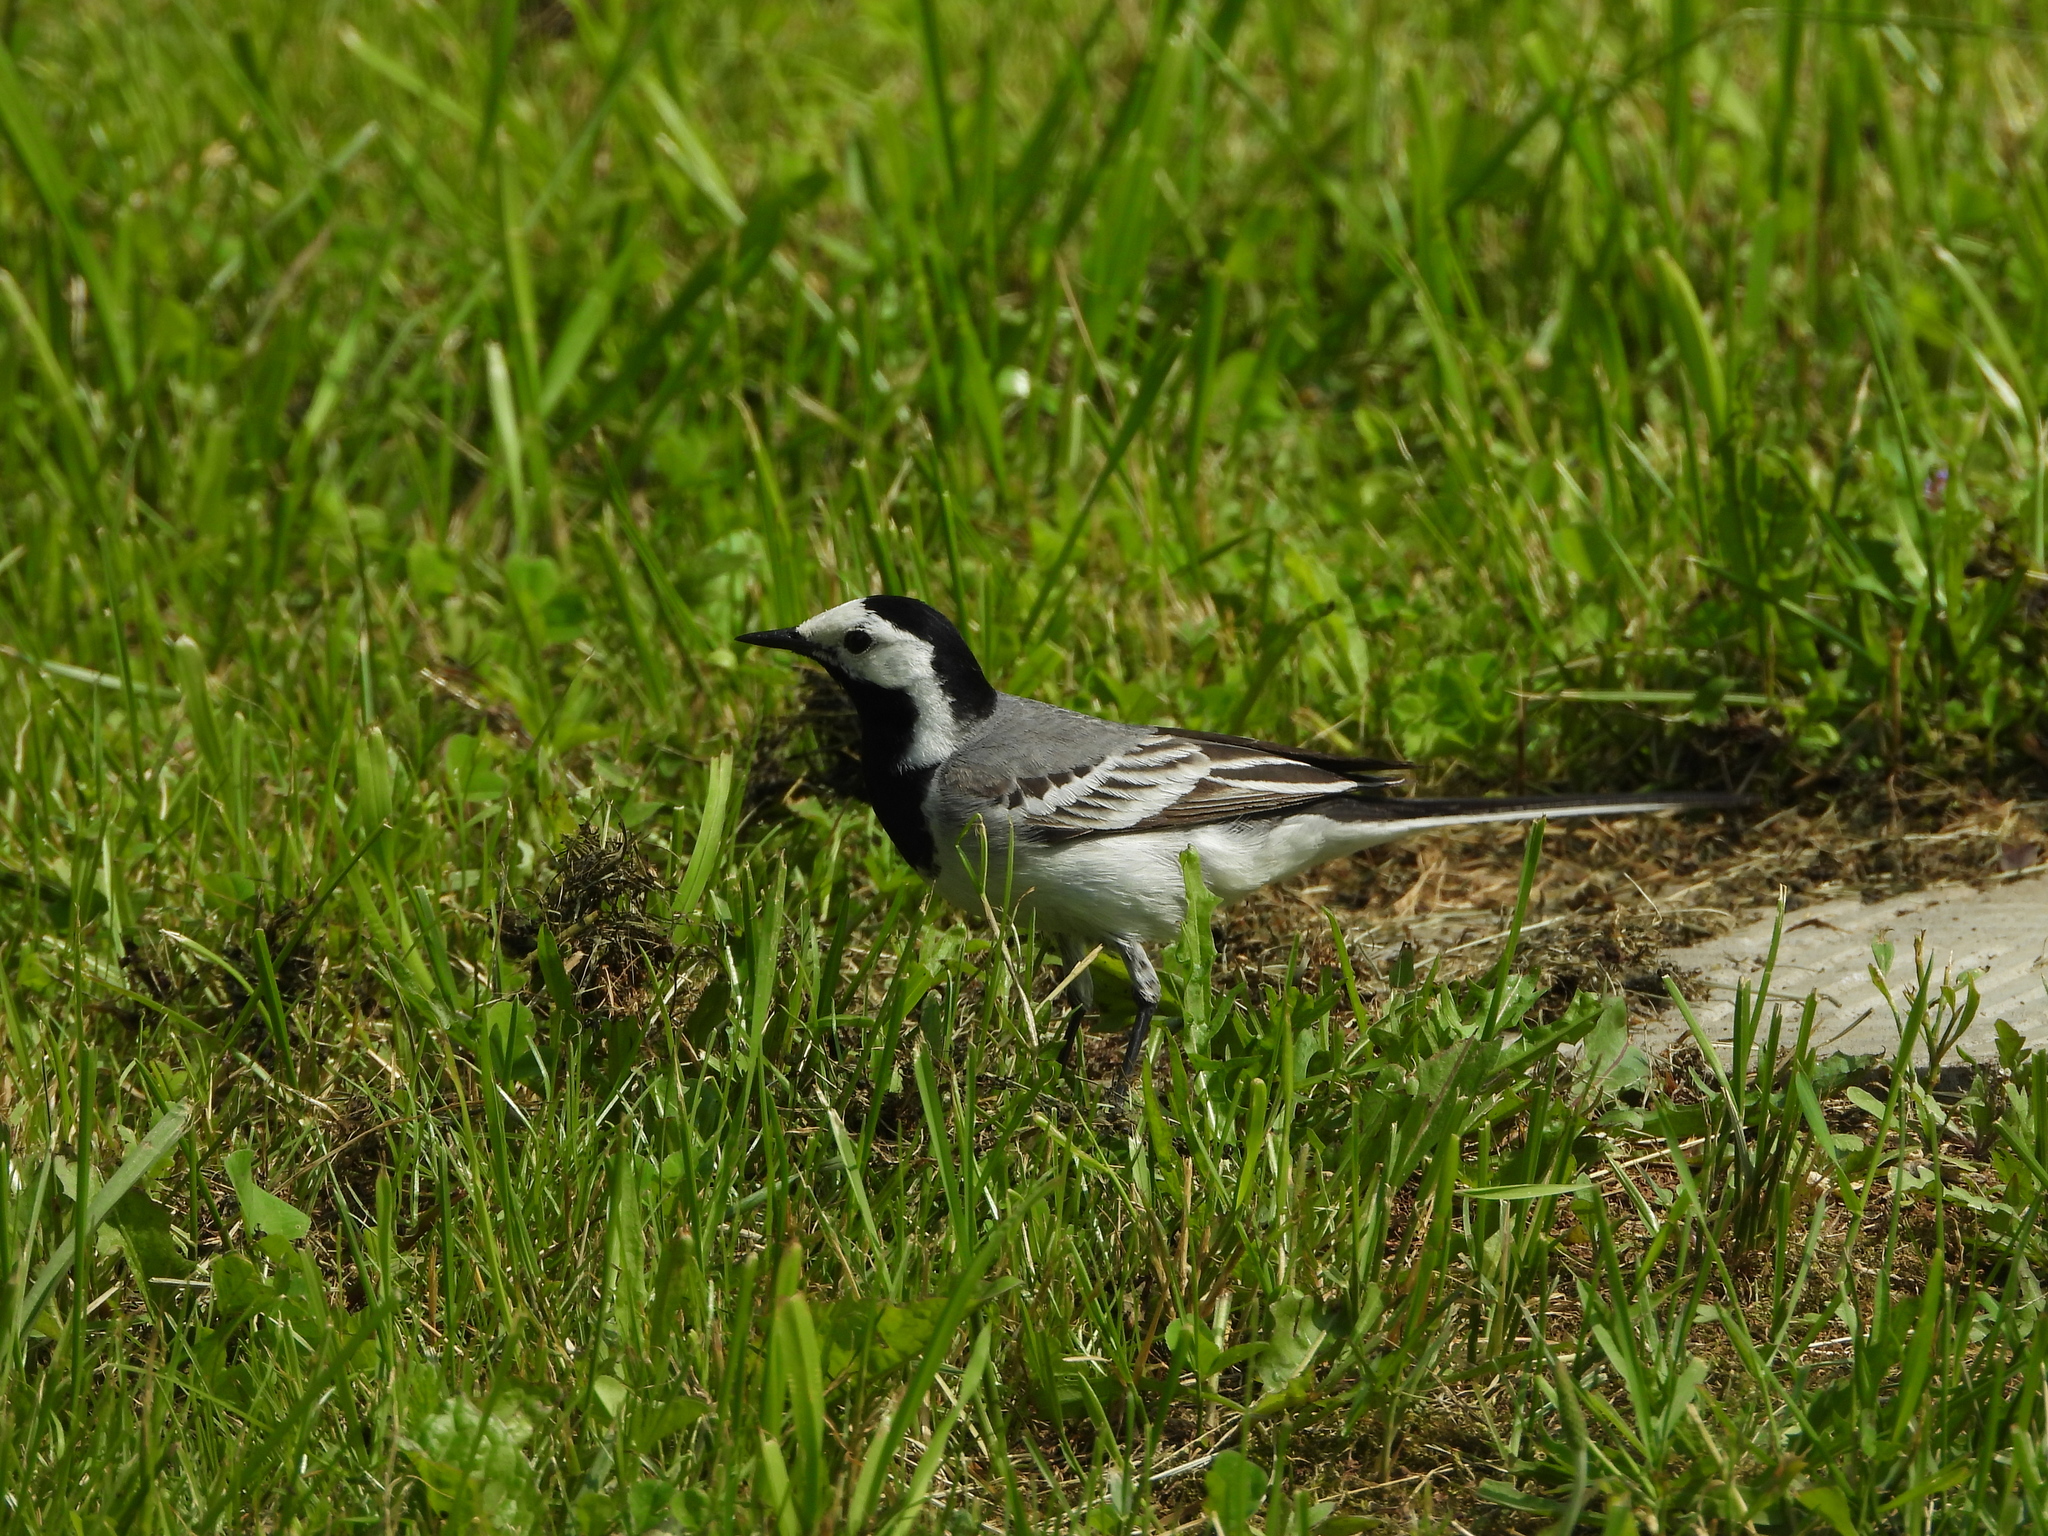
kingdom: Animalia
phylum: Chordata
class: Aves
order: Passeriformes
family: Motacillidae
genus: Motacilla
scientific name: Motacilla alba
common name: White wagtail
